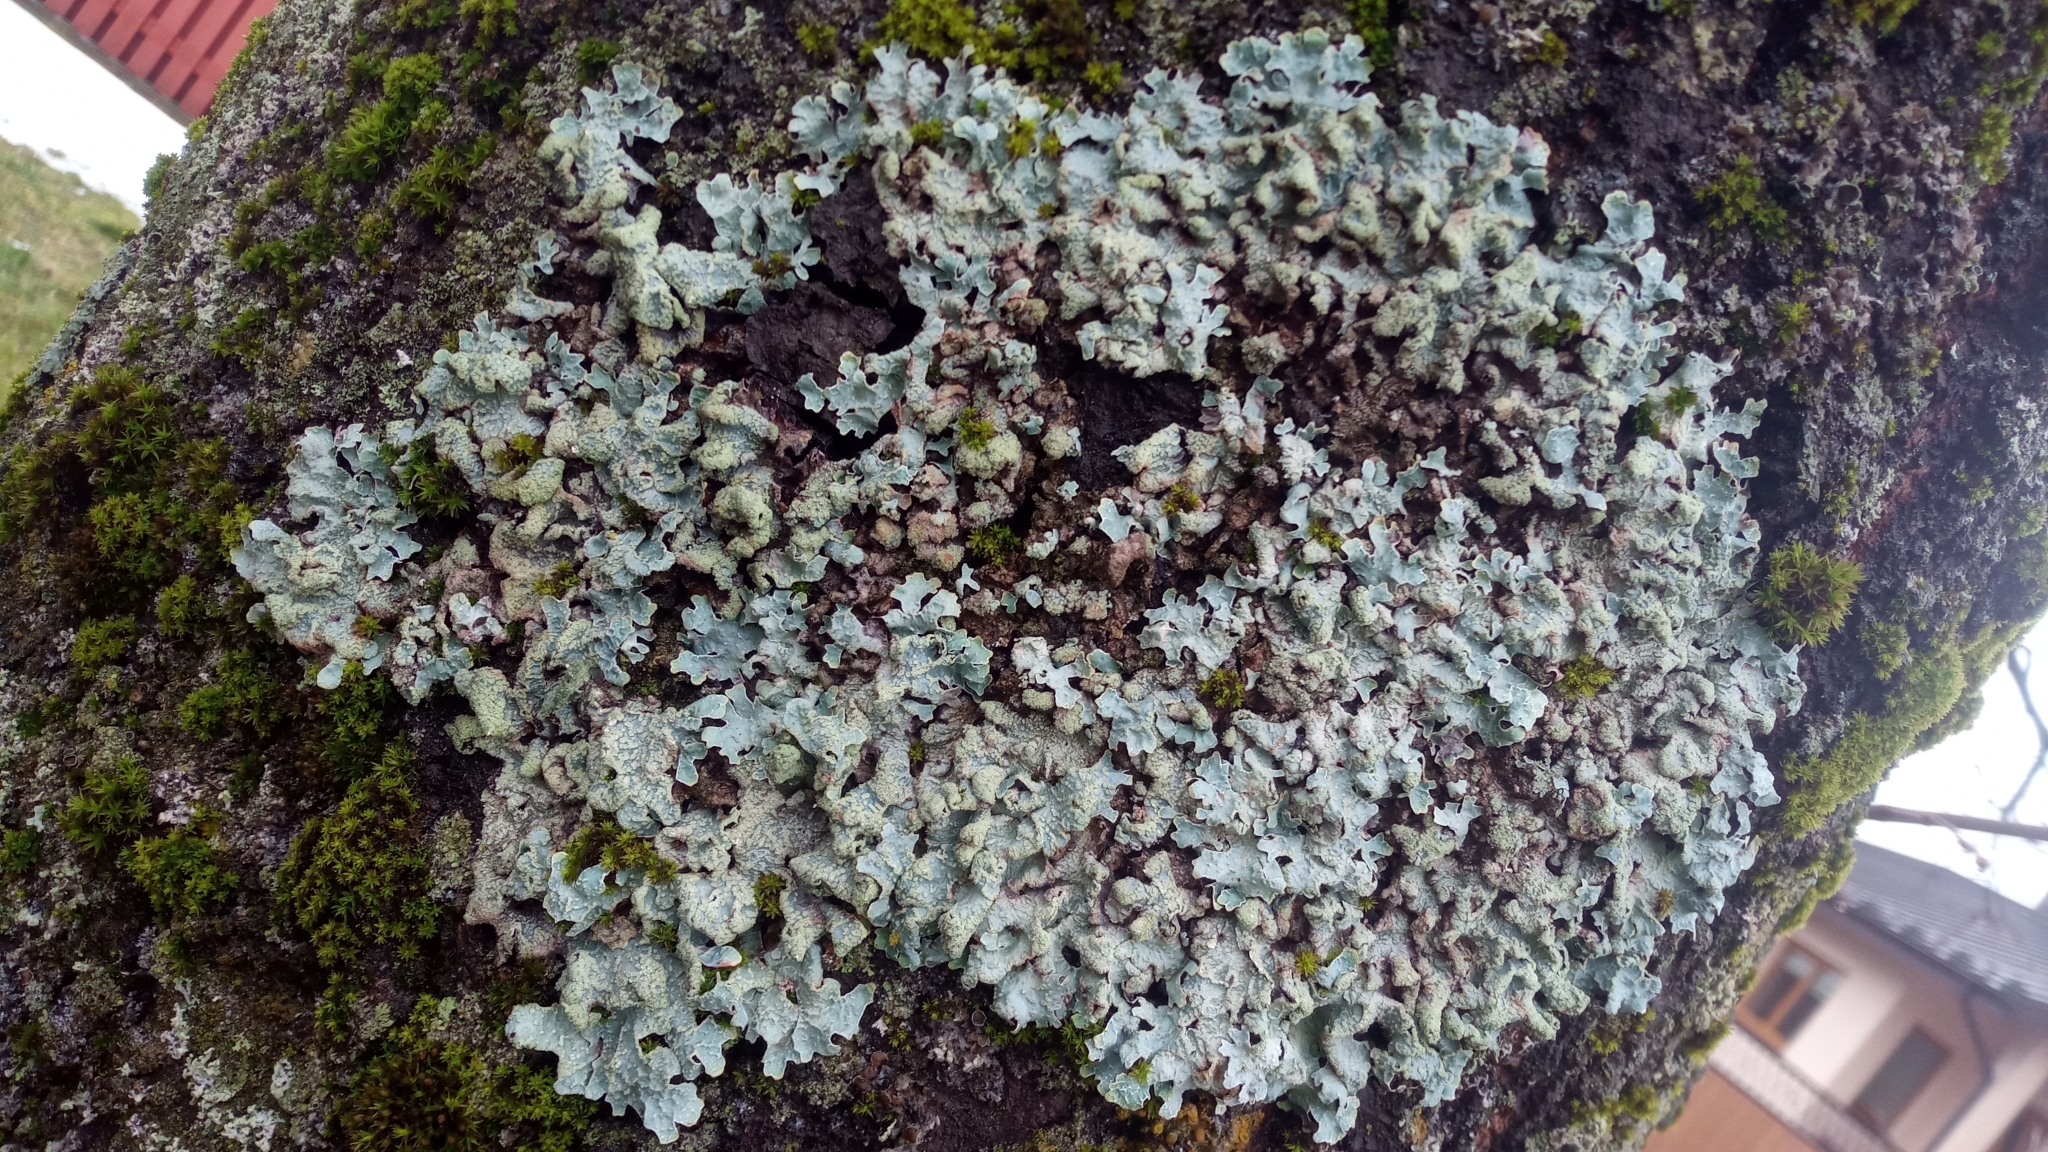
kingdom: Fungi
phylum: Ascomycota
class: Lecanoromycetes
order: Lecanorales
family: Parmeliaceae
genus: Parmelia
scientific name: Parmelia sulcata
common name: Netted shield lichen
